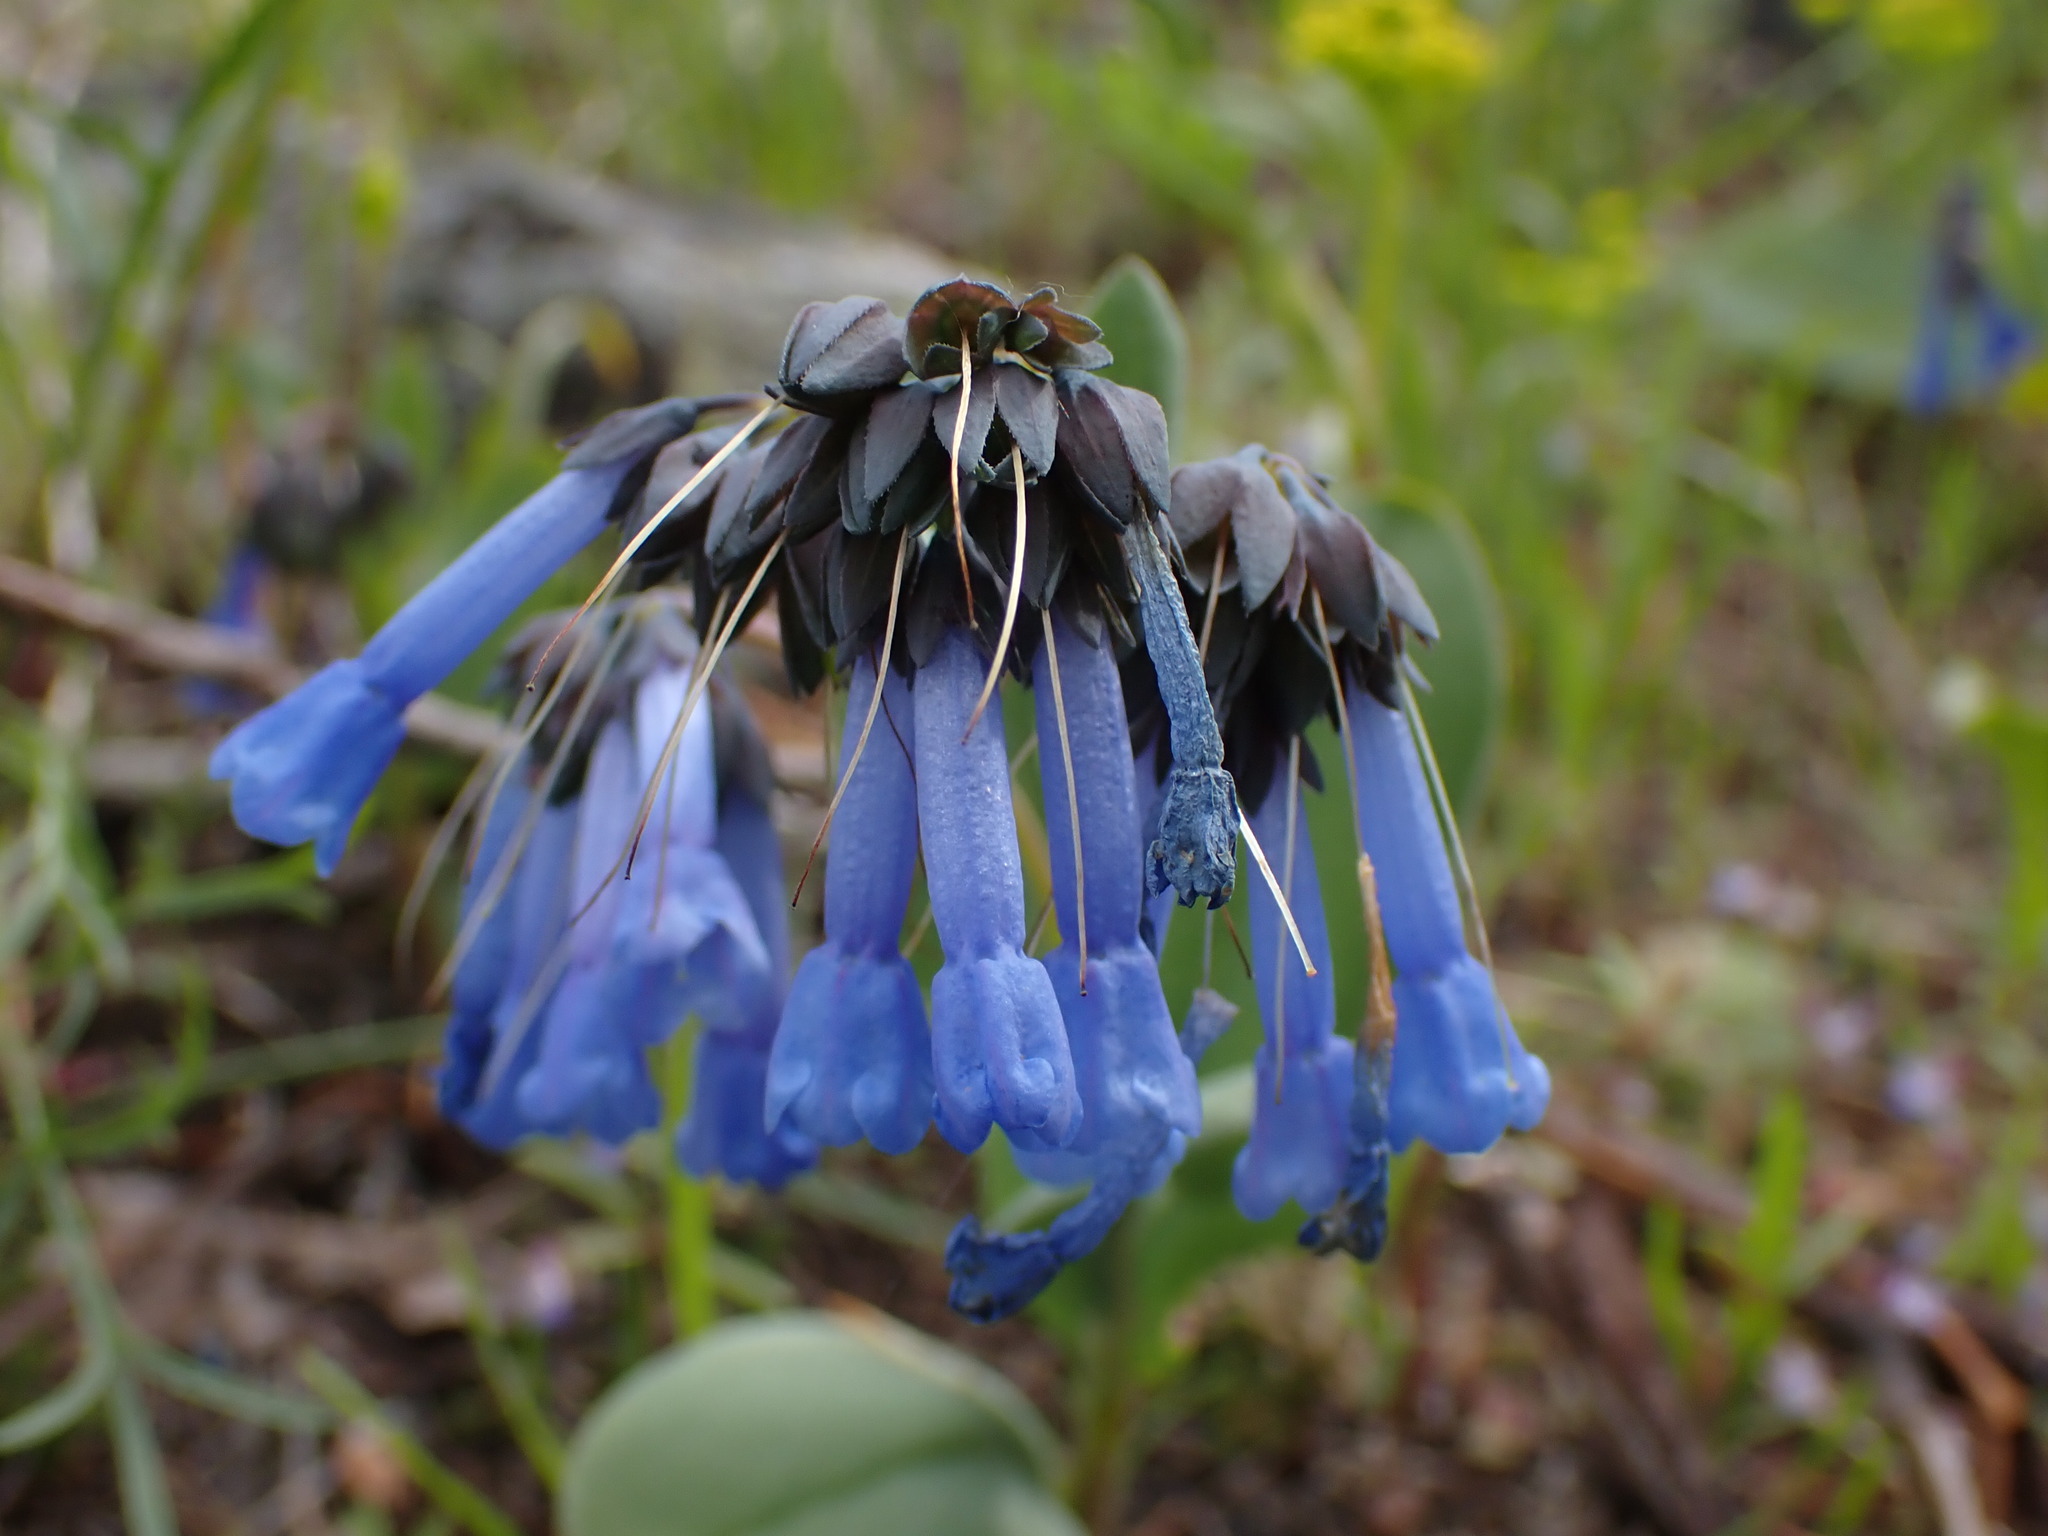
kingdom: Plantae
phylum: Tracheophyta
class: Magnoliopsida
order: Boraginales
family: Boraginaceae
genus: Mertensia
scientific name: Mertensia longiflora
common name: Large-flowered bluebells
